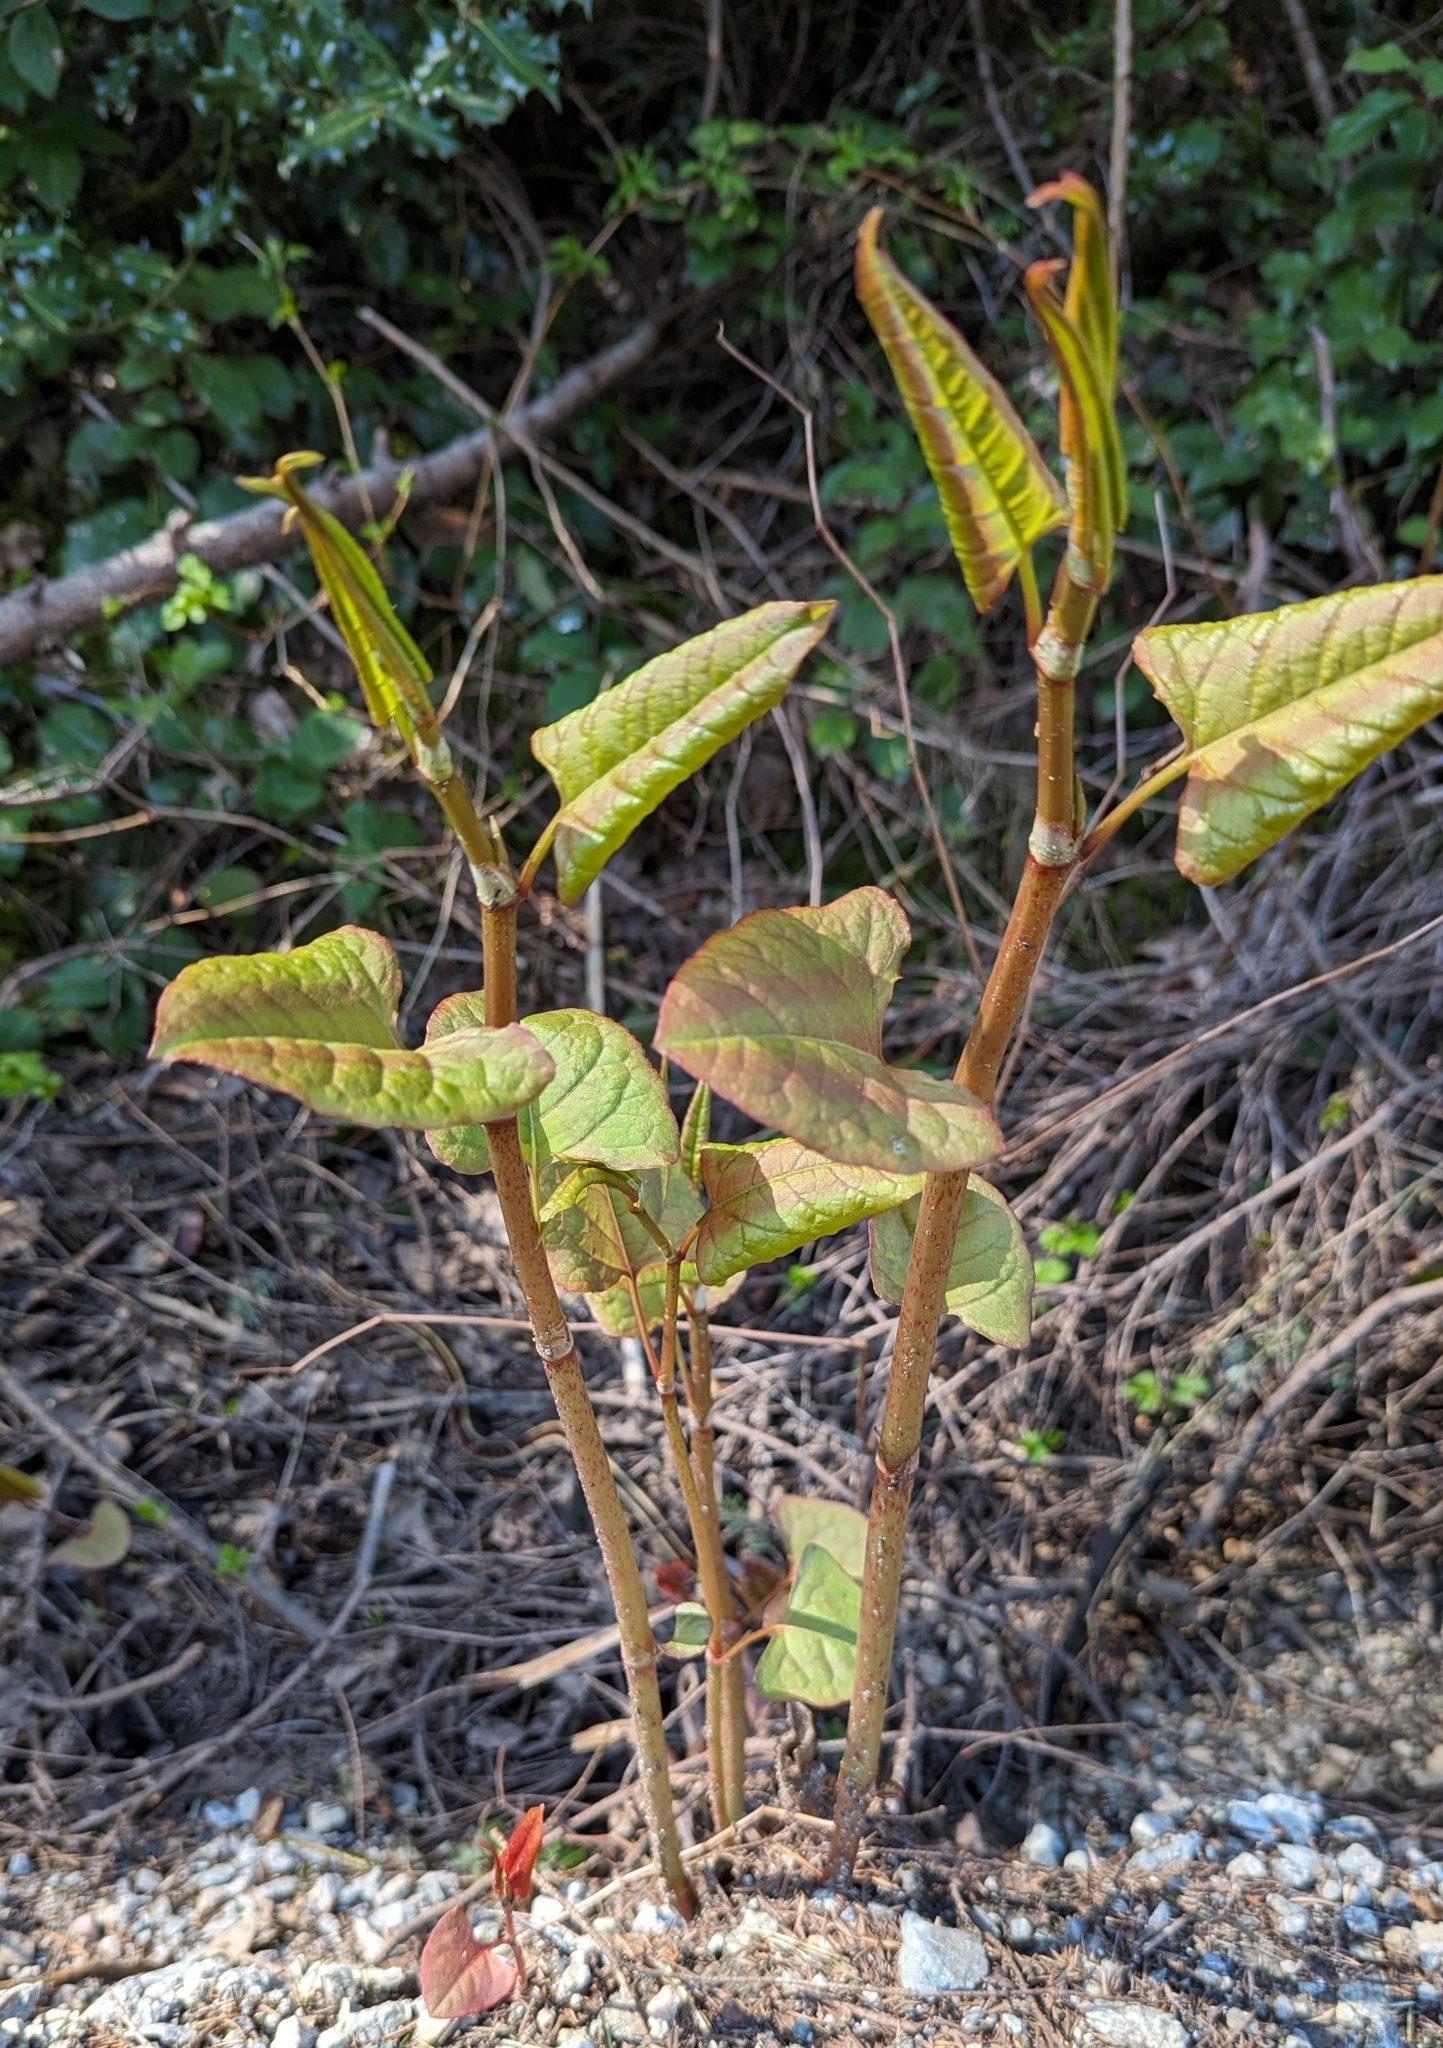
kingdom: Plantae
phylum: Tracheophyta
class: Magnoliopsida
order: Caryophyllales
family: Polygonaceae
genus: Reynoutria
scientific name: Reynoutria japonica
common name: Japanese knotweed
